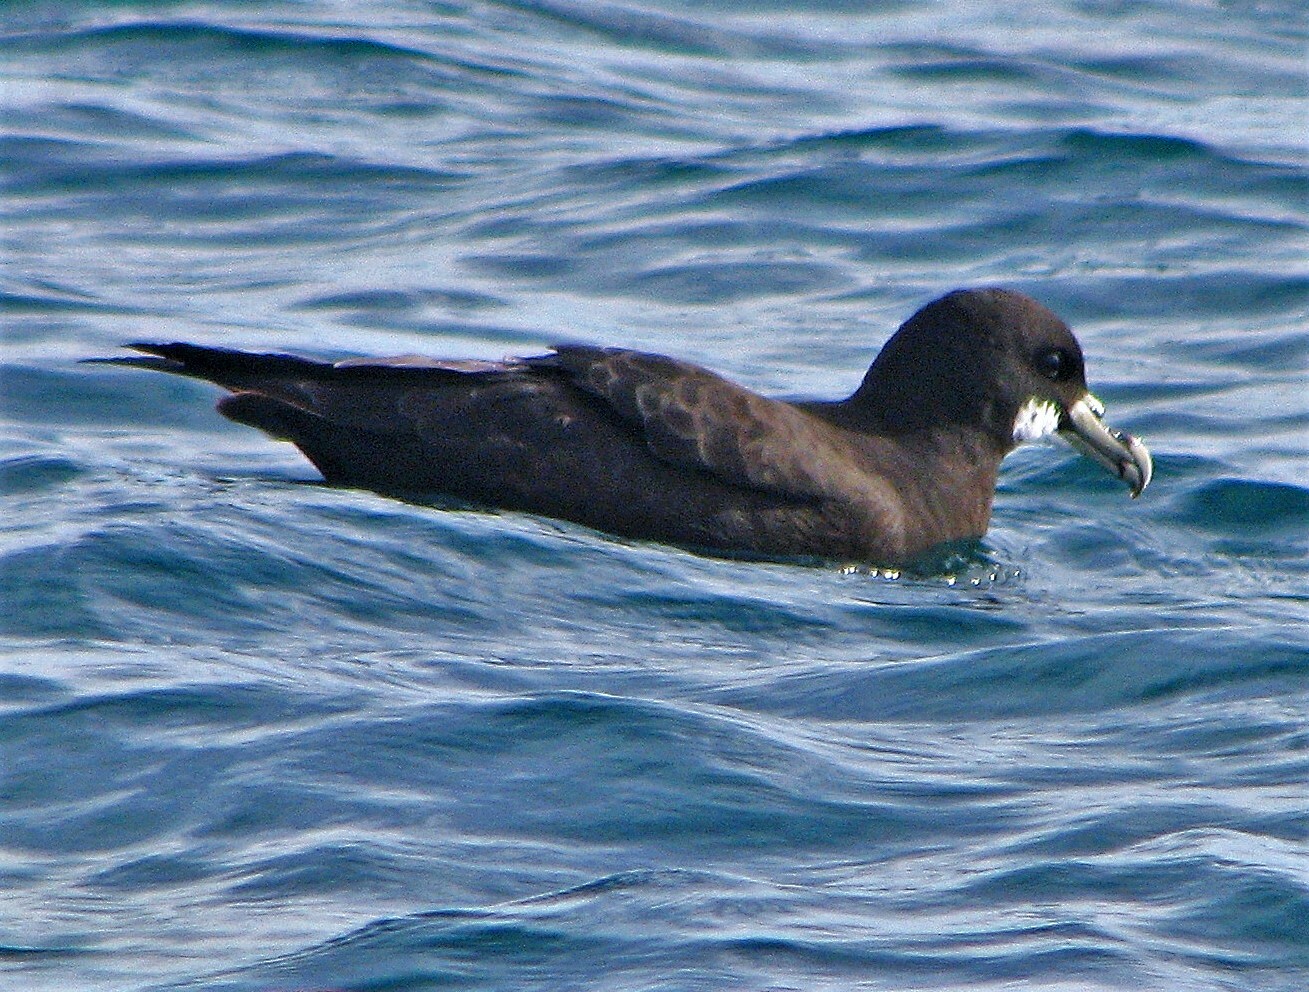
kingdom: Animalia
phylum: Chordata
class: Aves
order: Procellariiformes
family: Procellariidae
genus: Procellaria
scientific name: Procellaria aequinoctialis
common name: White-chinned petrel
